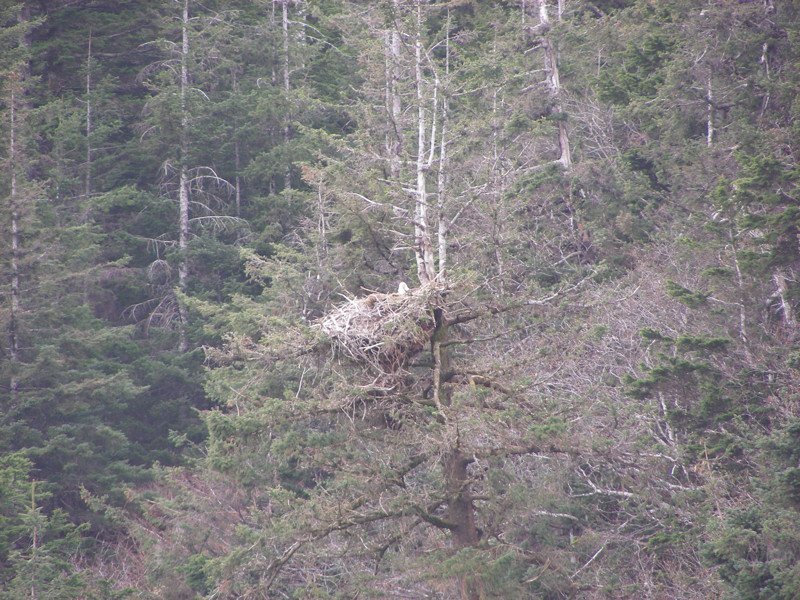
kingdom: Animalia
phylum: Chordata
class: Aves
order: Accipitriformes
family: Accipitridae
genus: Haliaeetus
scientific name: Haliaeetus leucocephalus
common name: Bald eagle
